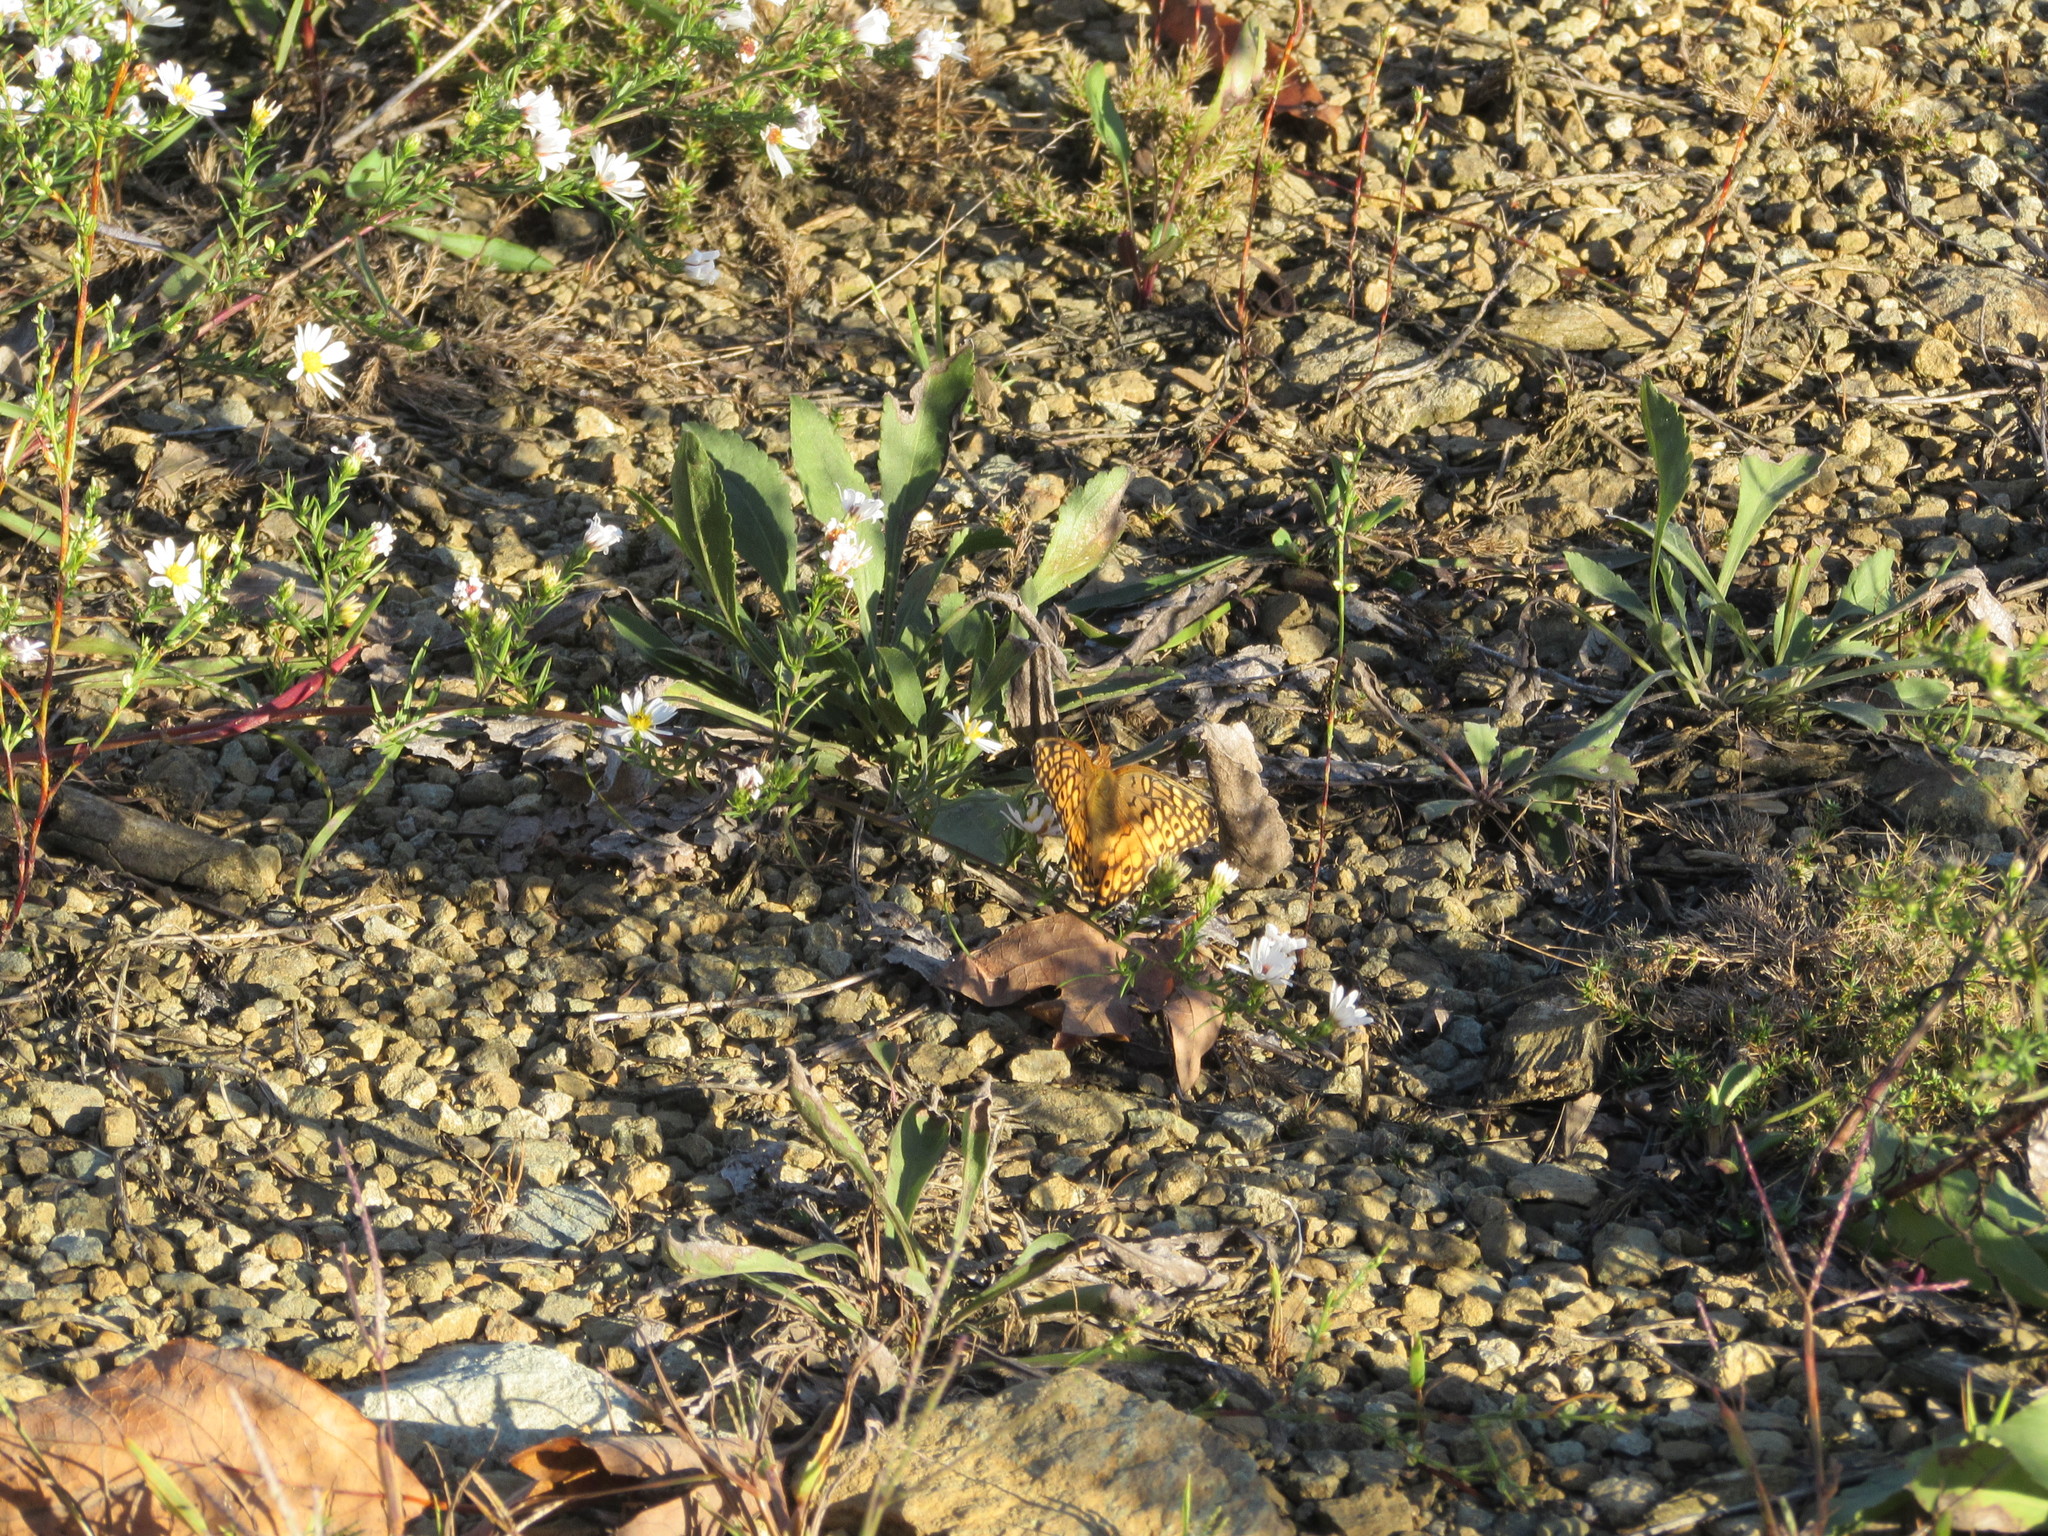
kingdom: Animalia
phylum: Arthropoda
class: Insecta
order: Lepidoptera
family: Nymphalidae
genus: Euptoieta
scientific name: Euptoieta claudia
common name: Variegated fritillary
